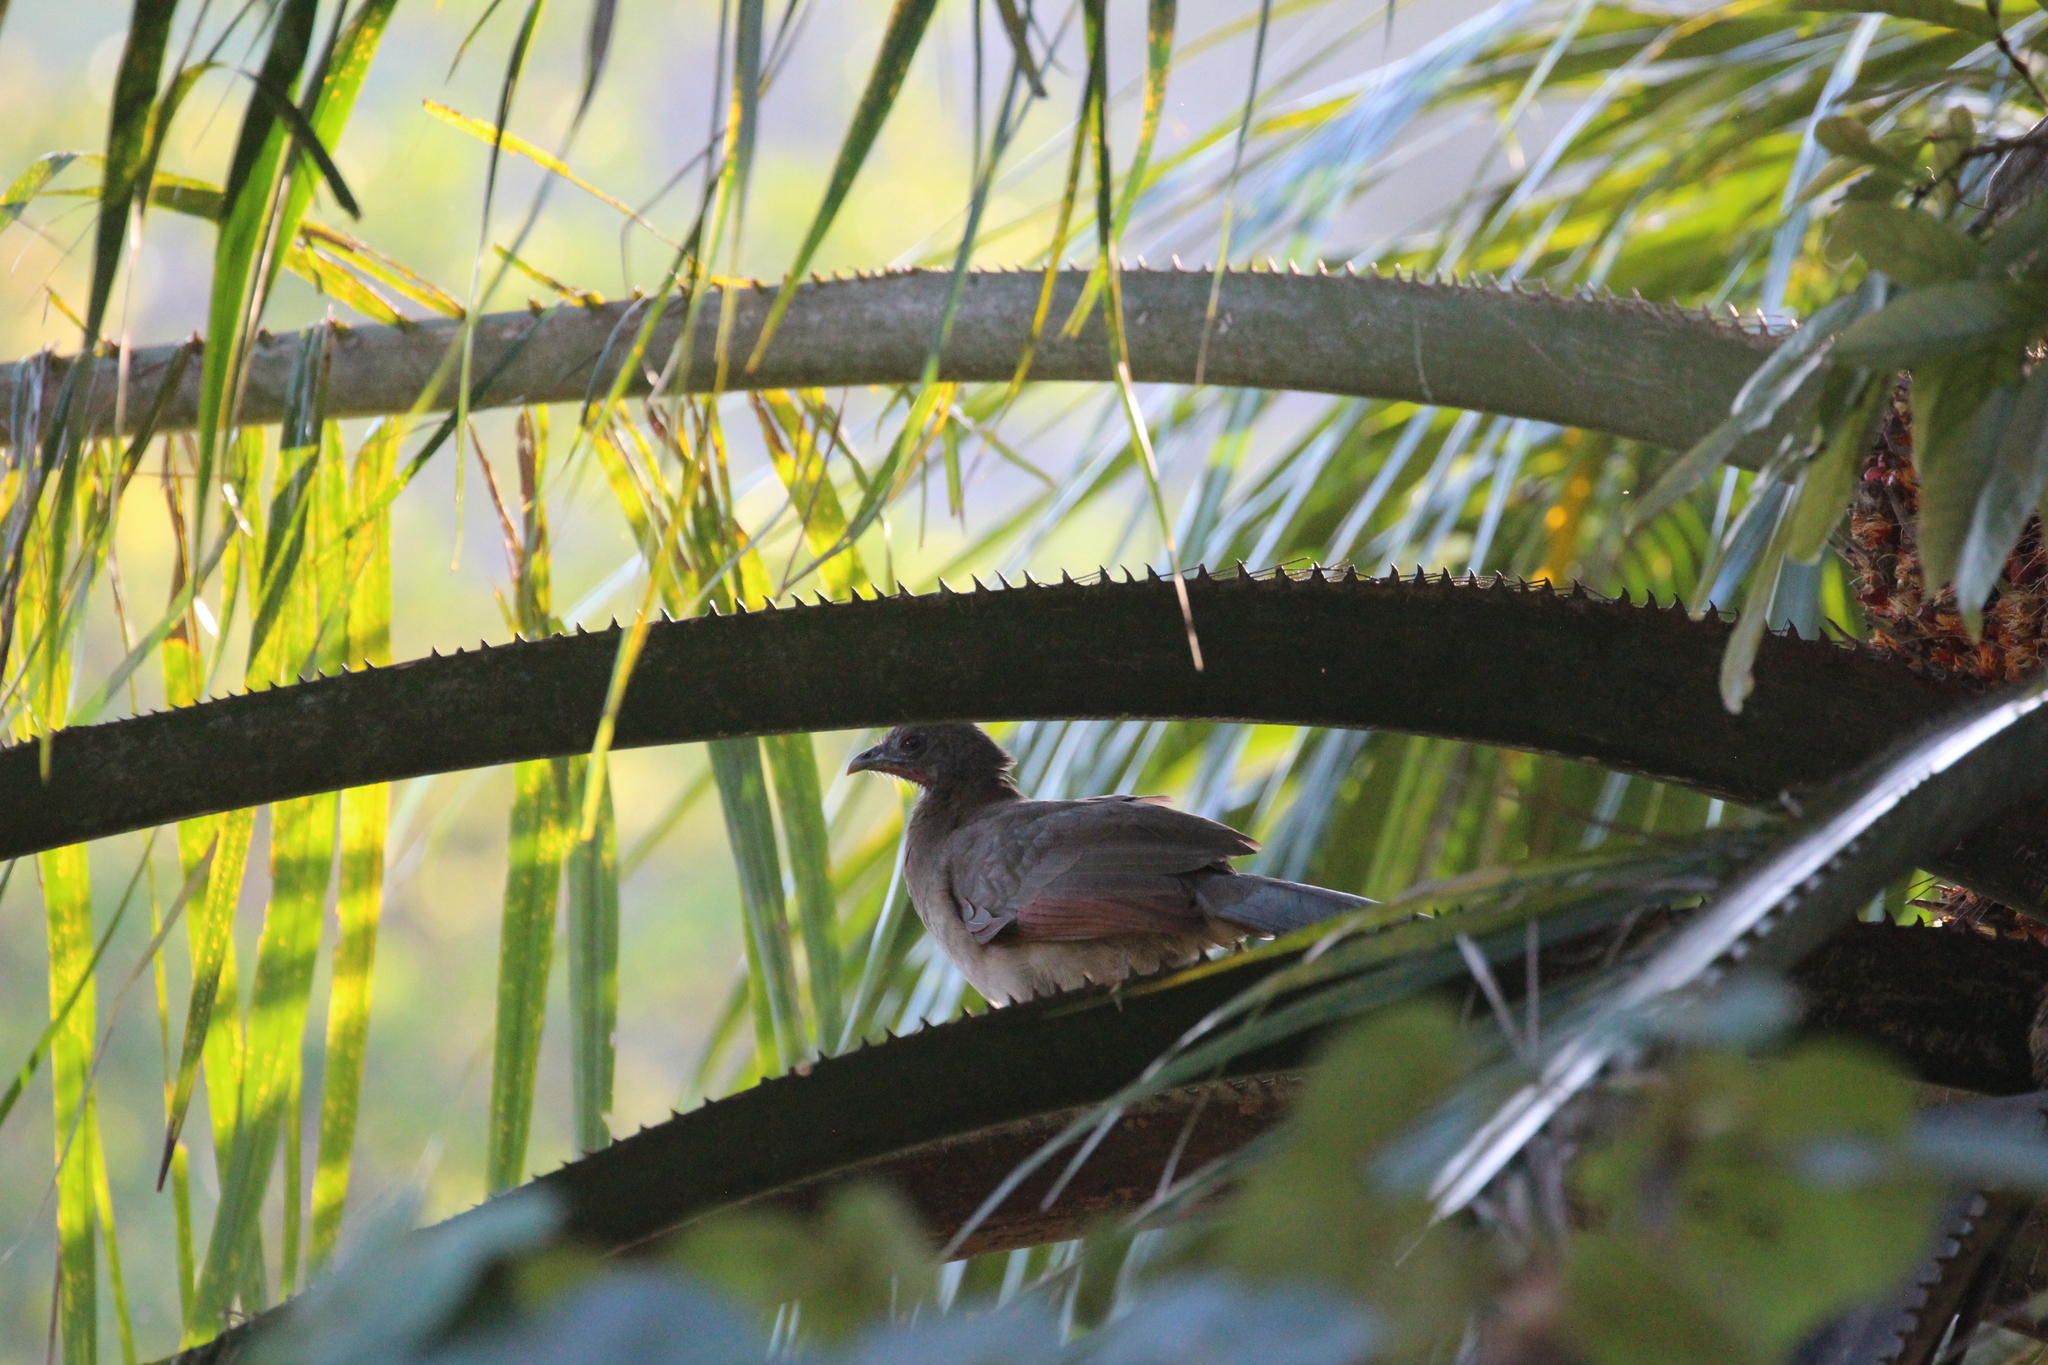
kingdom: Animalia
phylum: Chordata
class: Aves
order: Galliformes
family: Cracidae
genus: Ortalis
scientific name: Ortalis cinereiceps
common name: Grey-headed chachalaca
